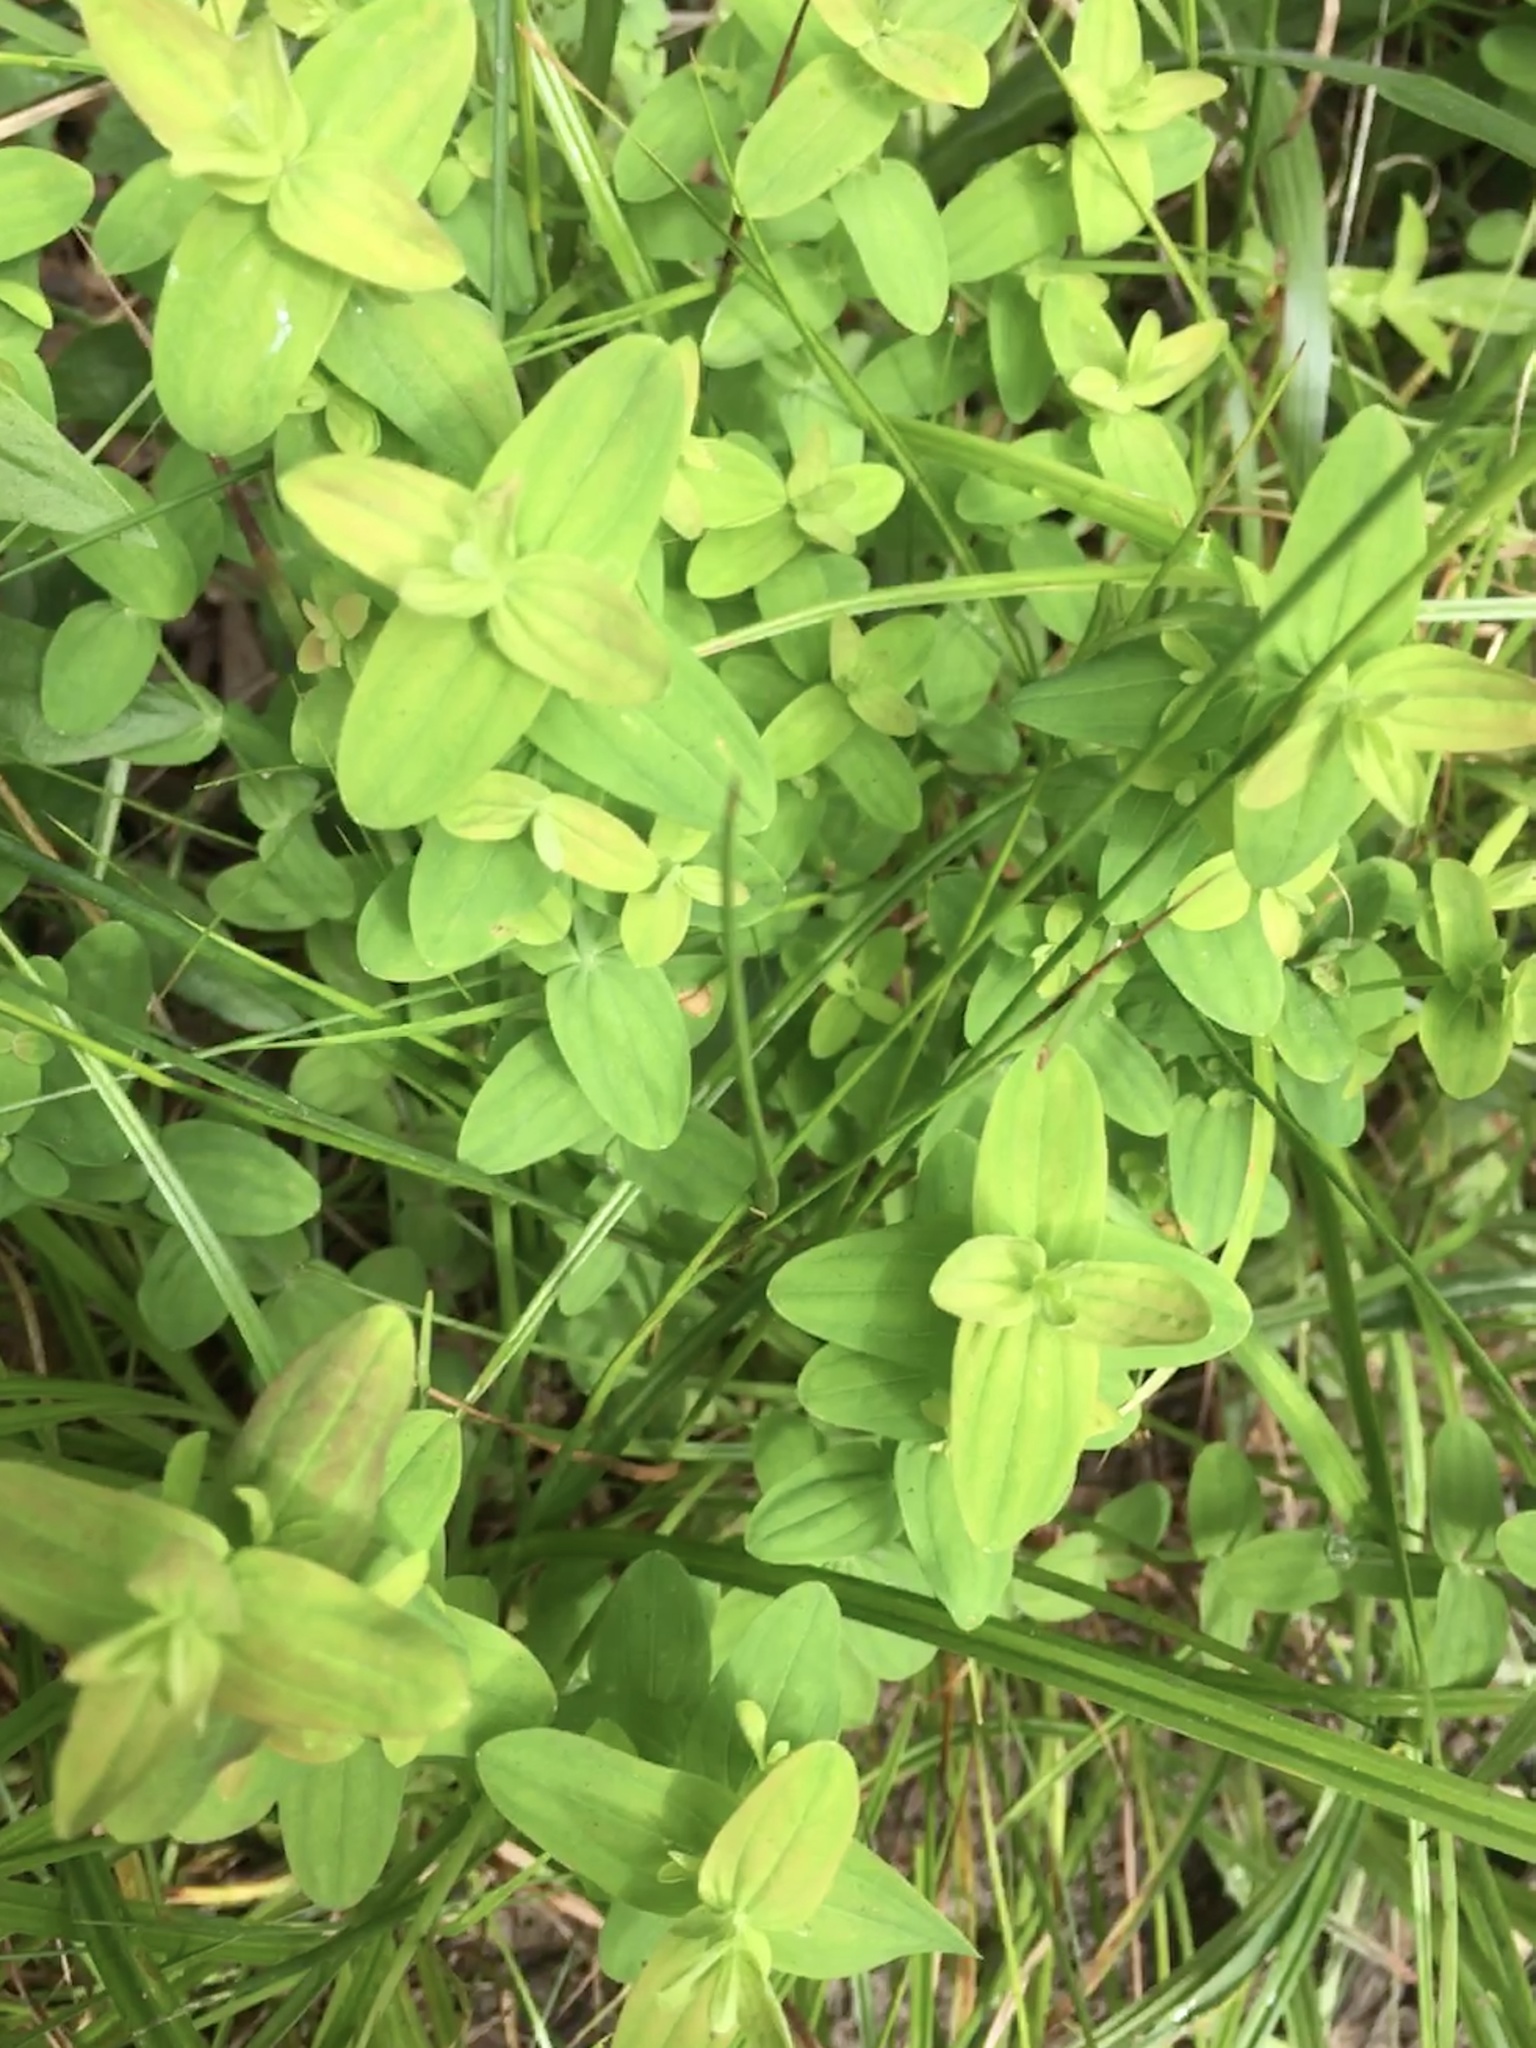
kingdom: Plantae
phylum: Tracheophyta
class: Magnoliopsida
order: Malpighiales
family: Hypericaceae
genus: Hypericum
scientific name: Hypericum mutilum
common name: Dwarf st. john's-wort
